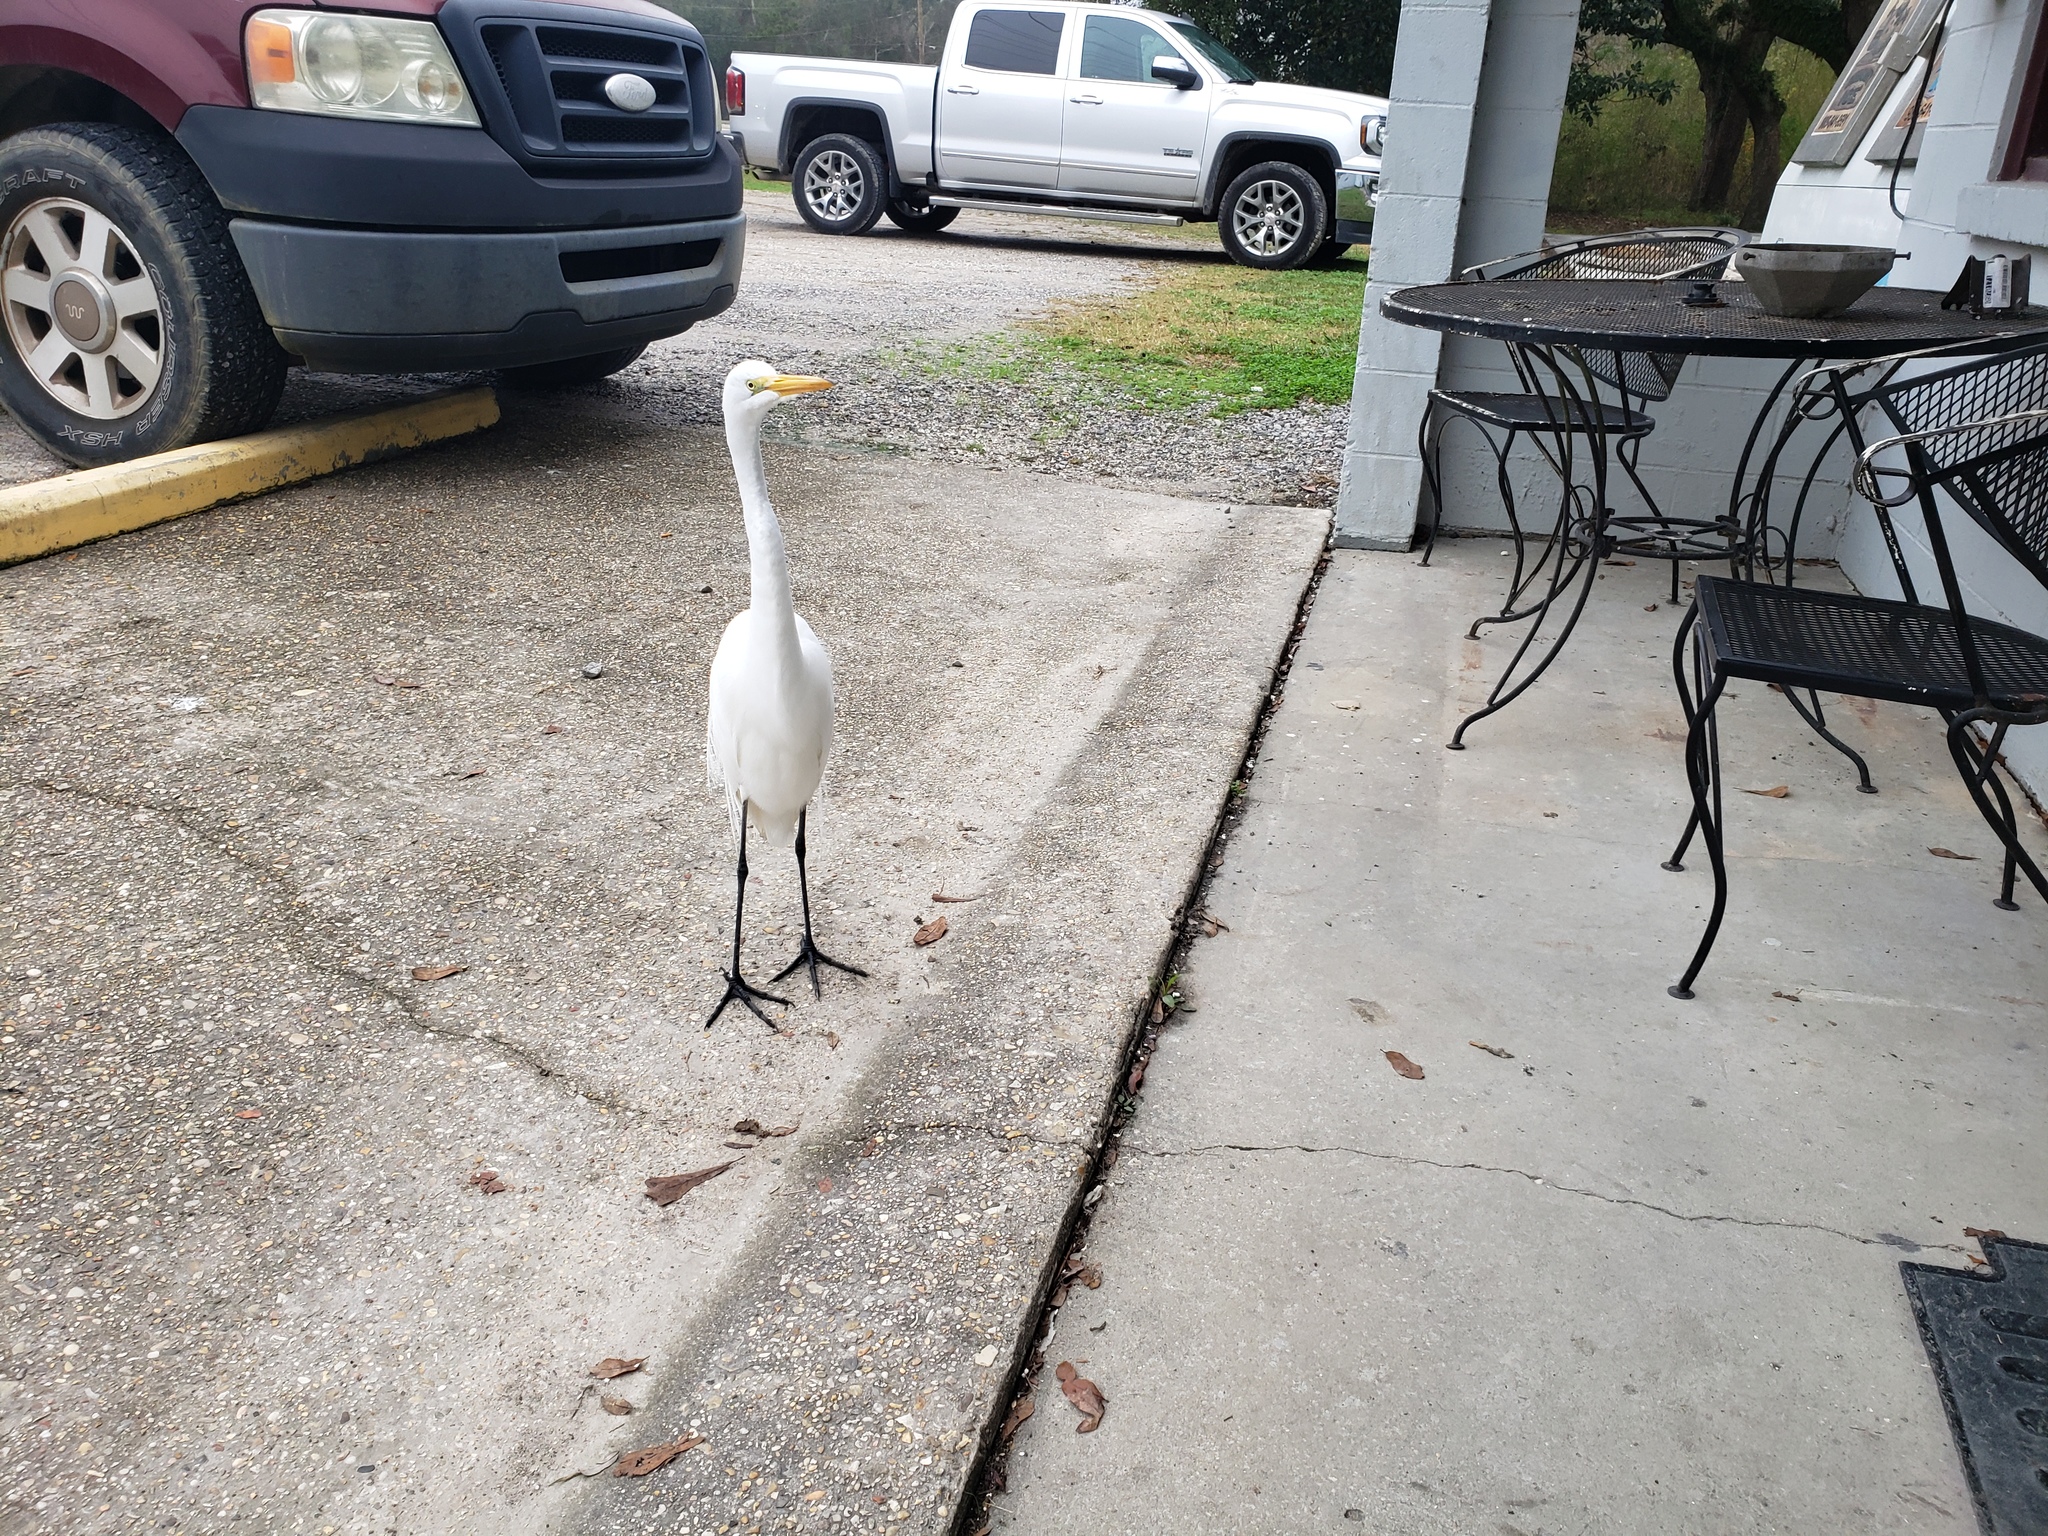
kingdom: Animalia
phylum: Chordata
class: Aves
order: Pelecaniformes
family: Ardeidae
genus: Ardea
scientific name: Ardea alba
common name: Great egret
